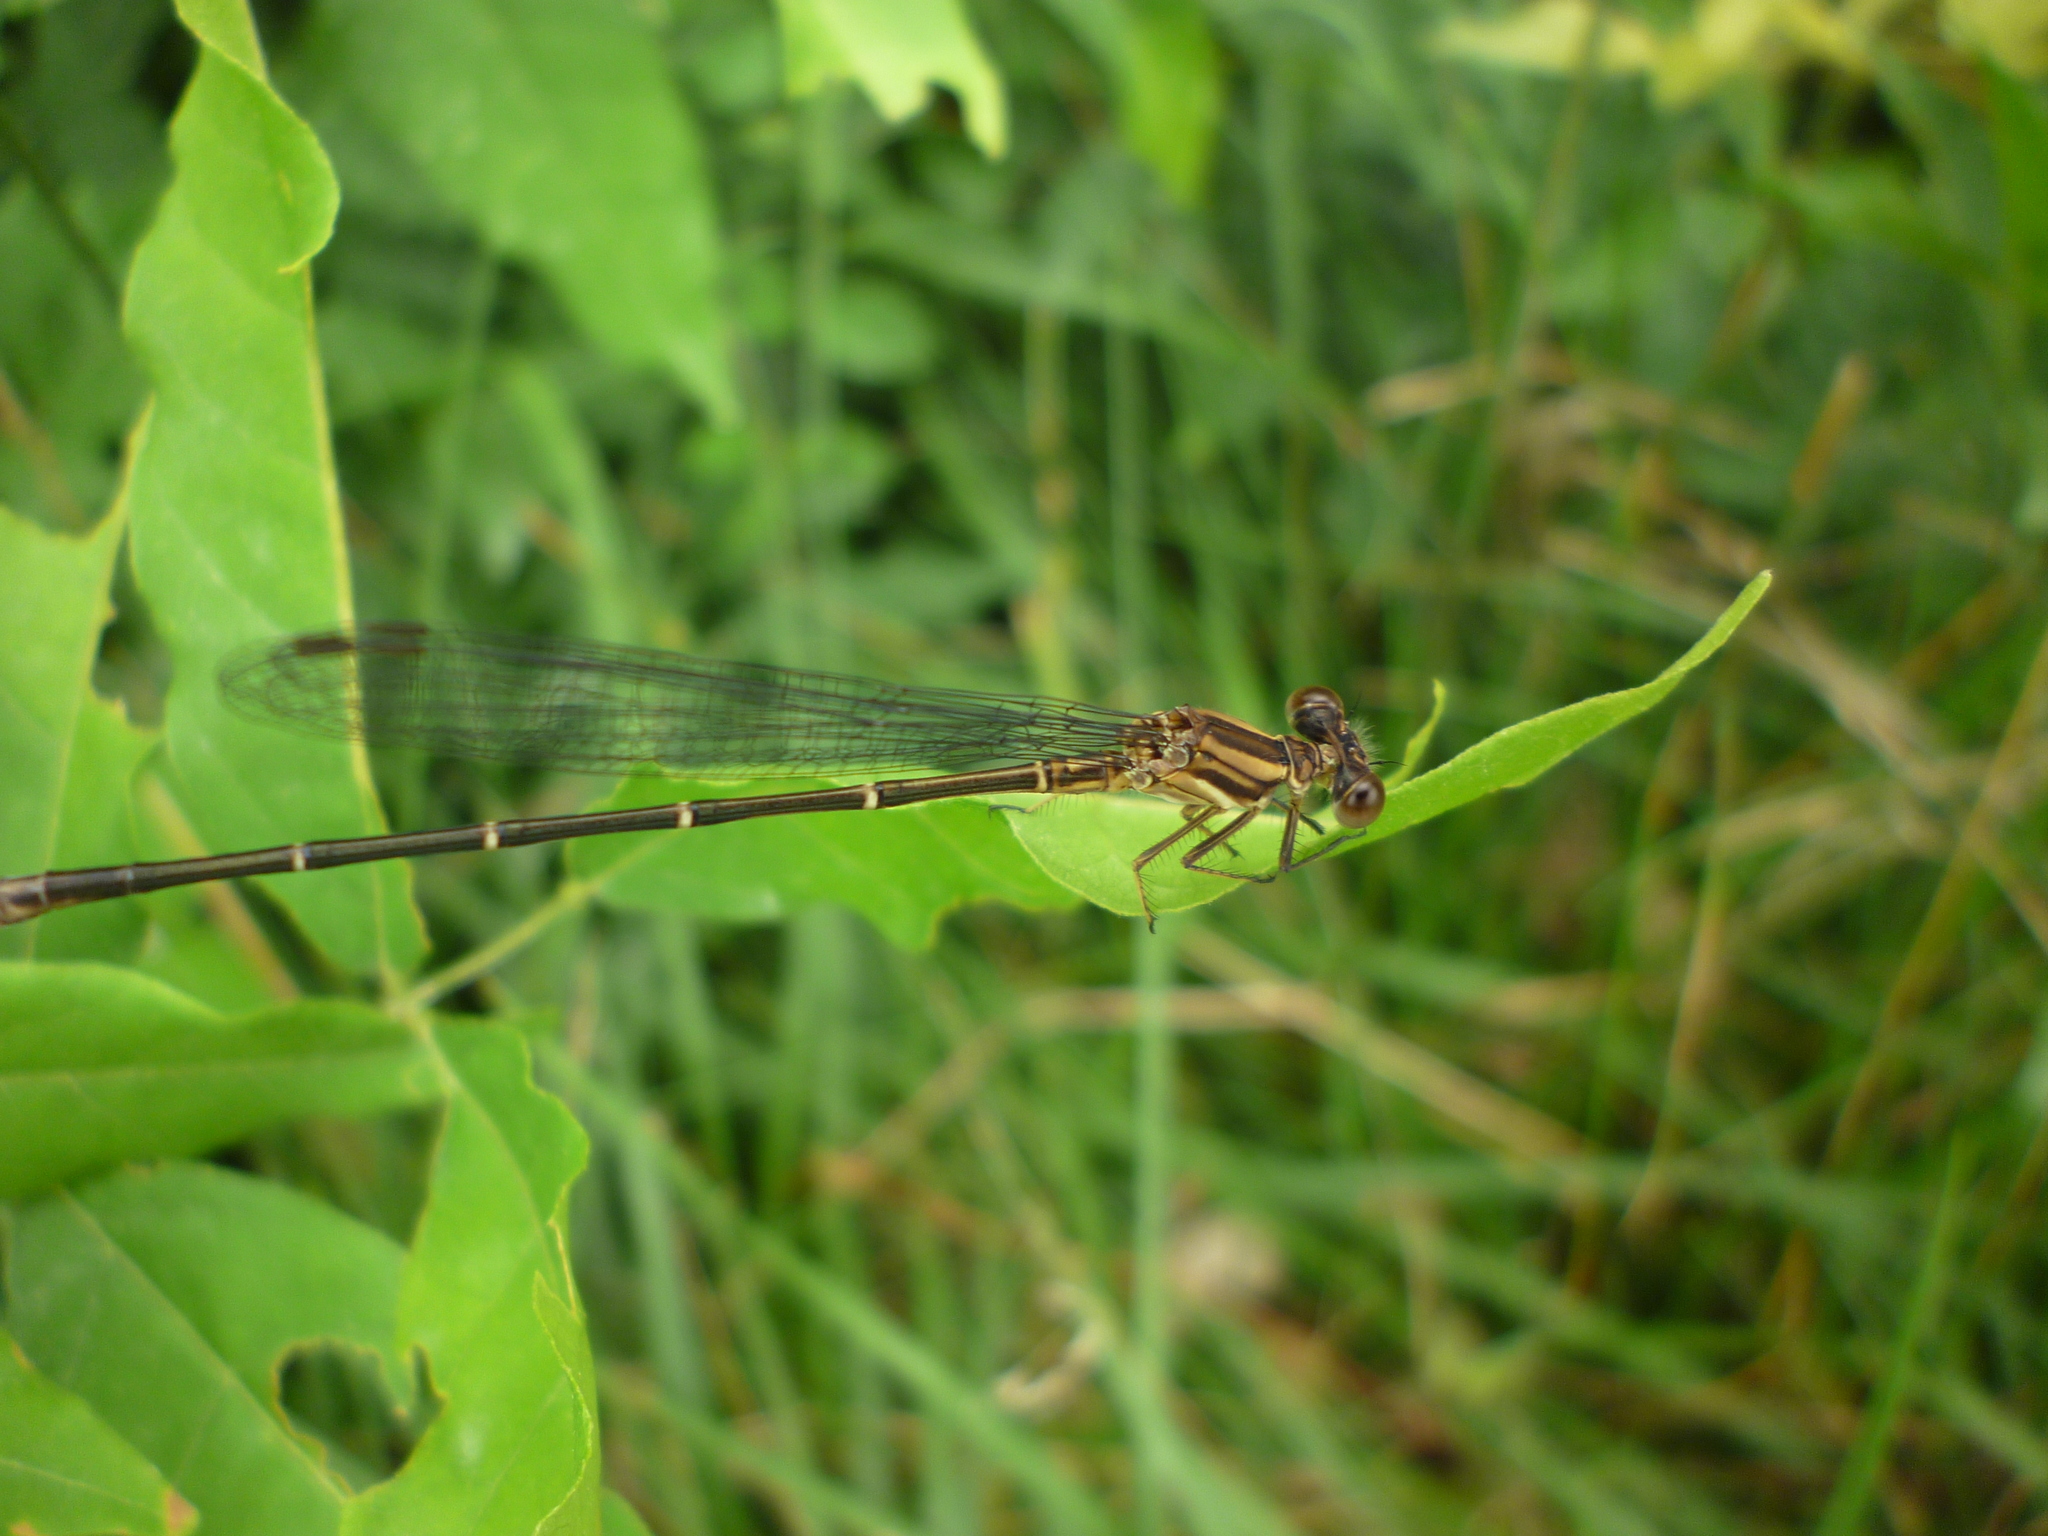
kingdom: Animalia
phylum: Arthropoda
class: Insecta
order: Odonata
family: Coenagrionidae
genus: Argia
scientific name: Argia moesta
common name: Powdered dancer
